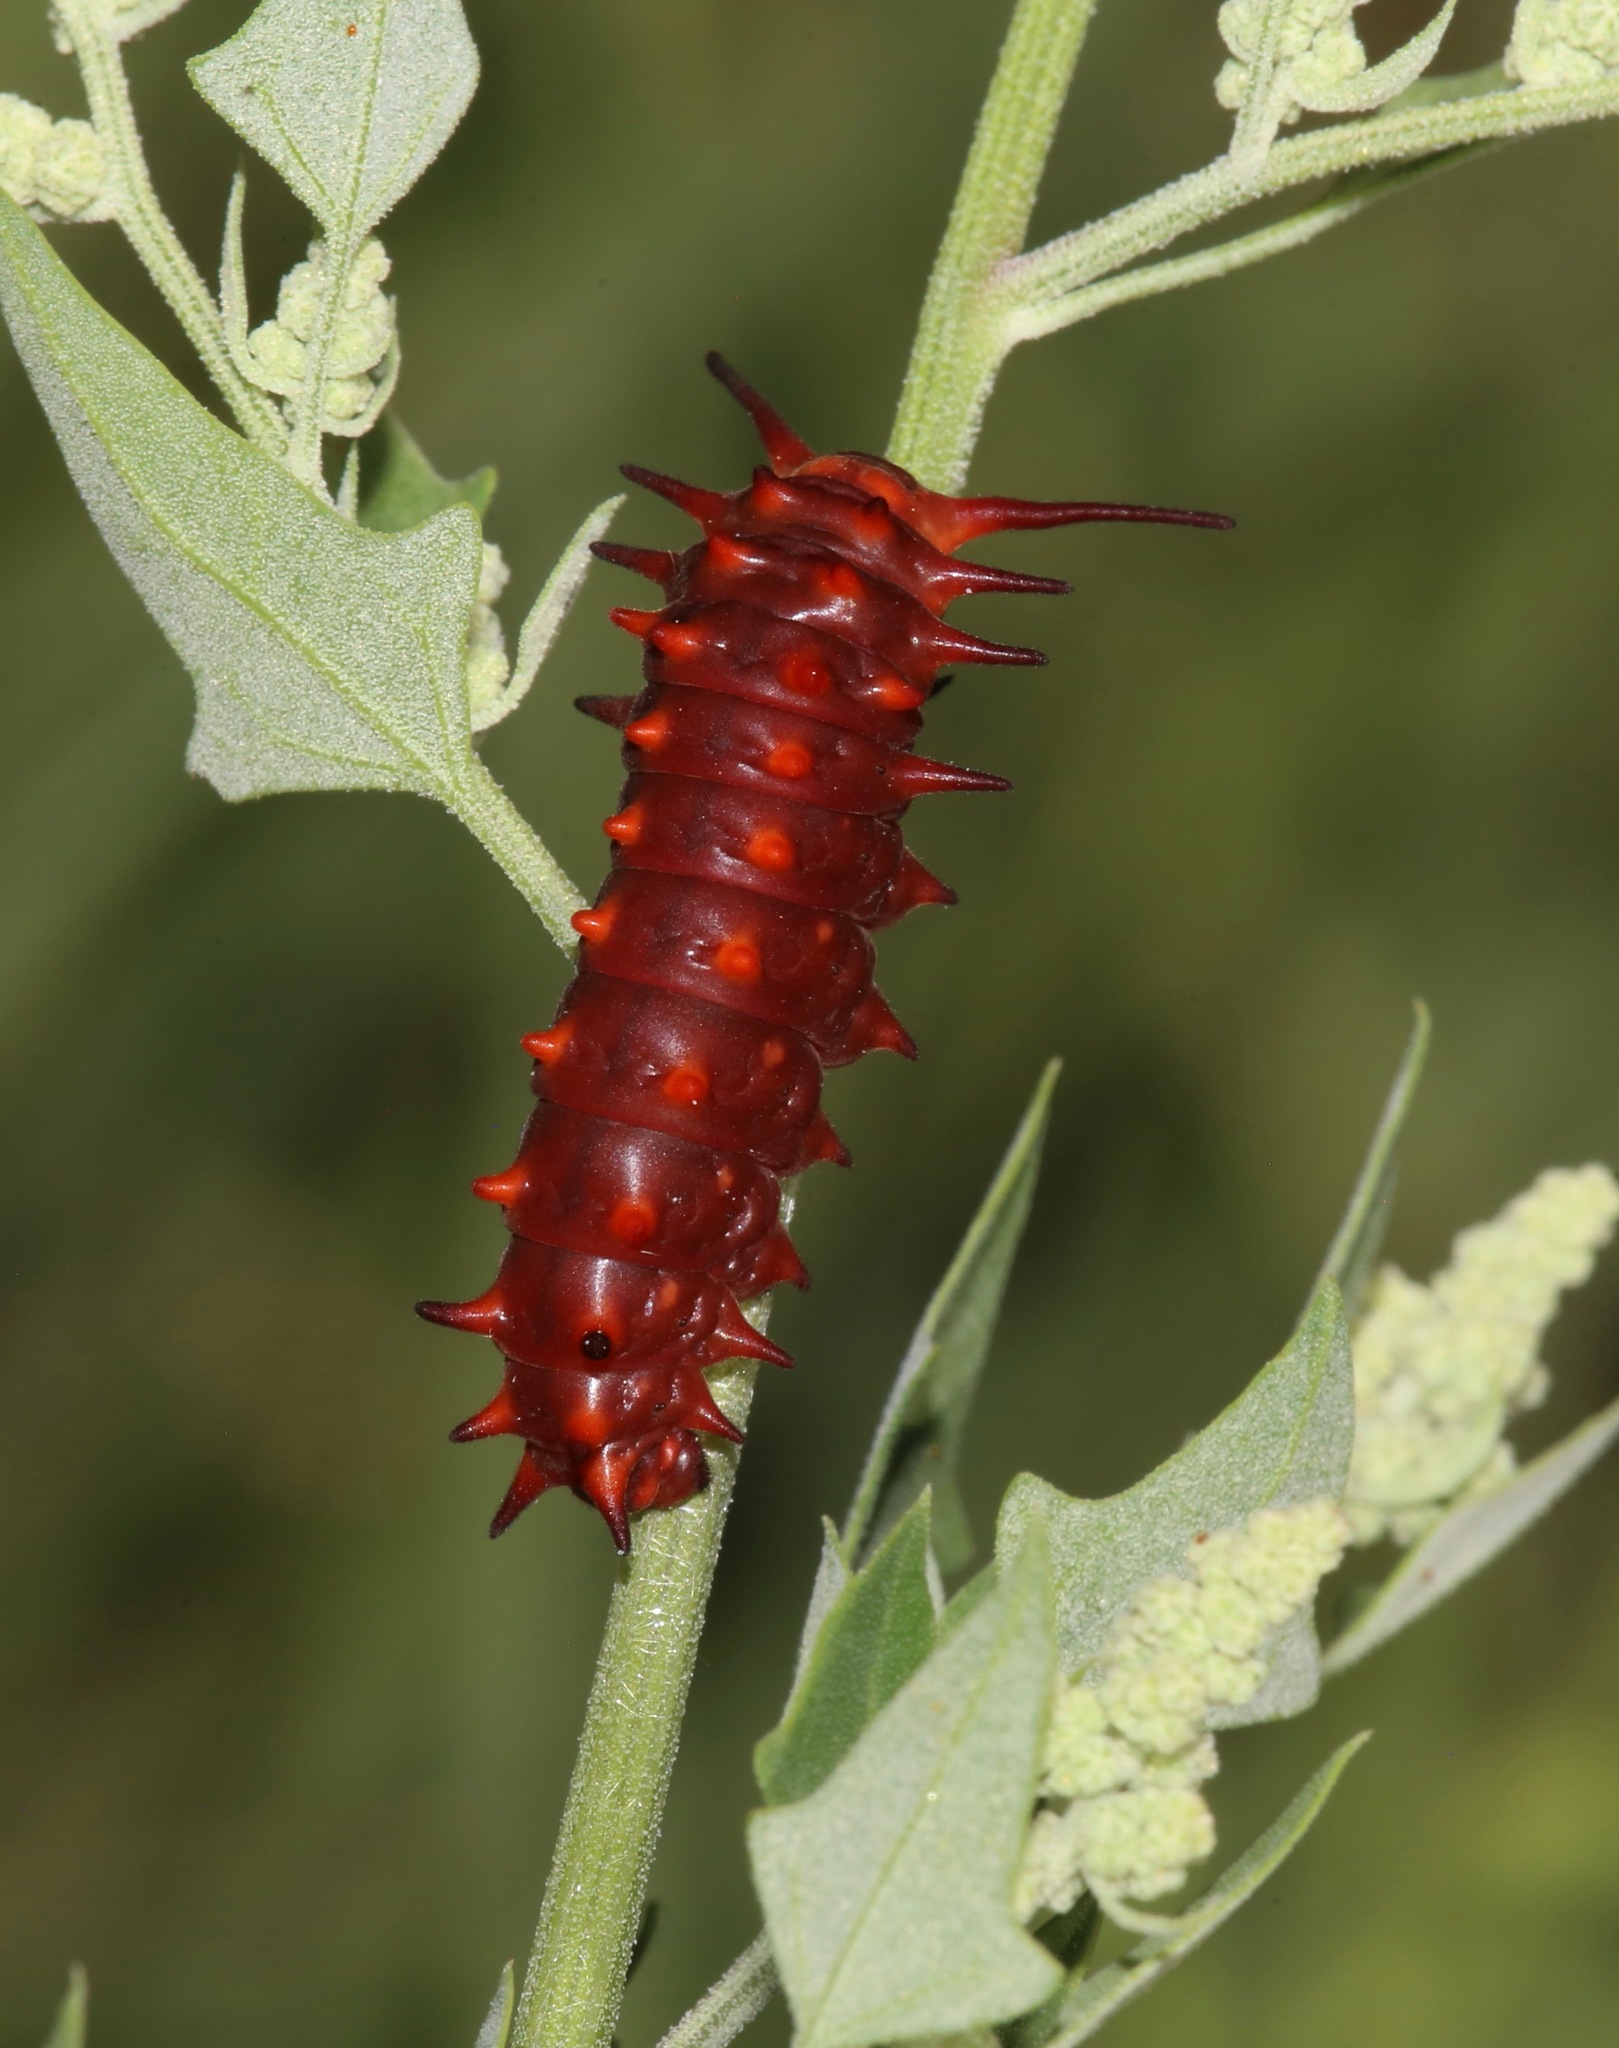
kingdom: Animalia
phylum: Arthropoda
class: Insecta
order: Lepidoptera
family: Papilionidae
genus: Battus
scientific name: Battus philenor
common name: Pipevine swallowtail
